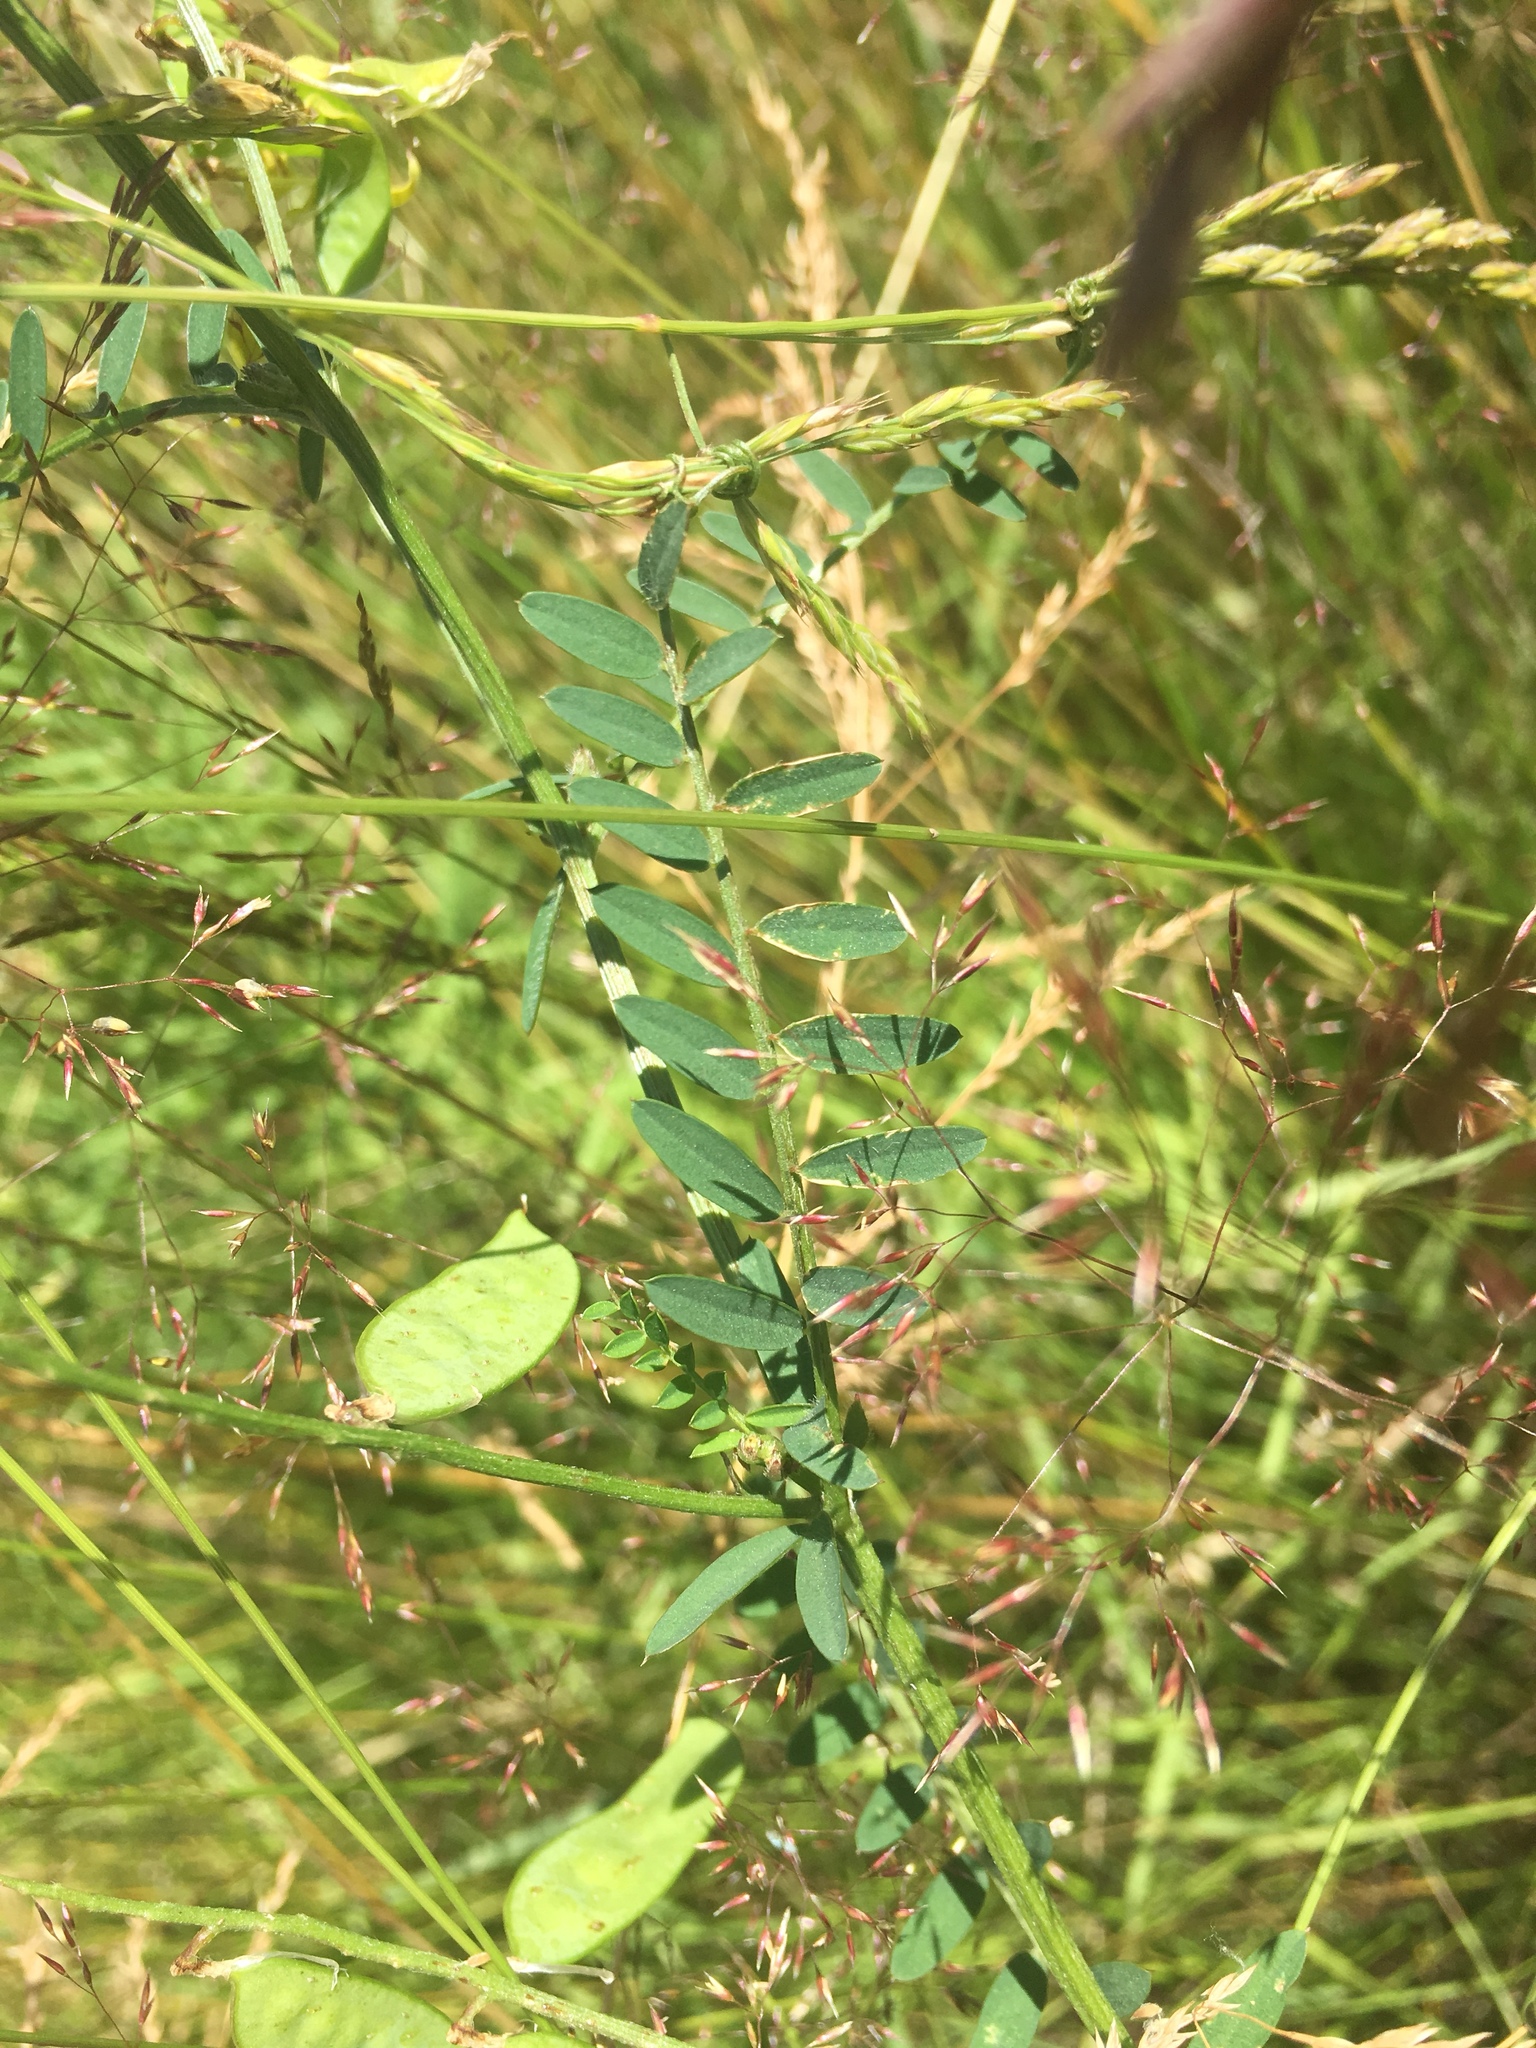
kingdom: Plantae
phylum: Tracheophyta
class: Magnoliopsida
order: Fabales
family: Fabaceae
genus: Vicia
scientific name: Vicia villosa
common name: Fodder vetch
